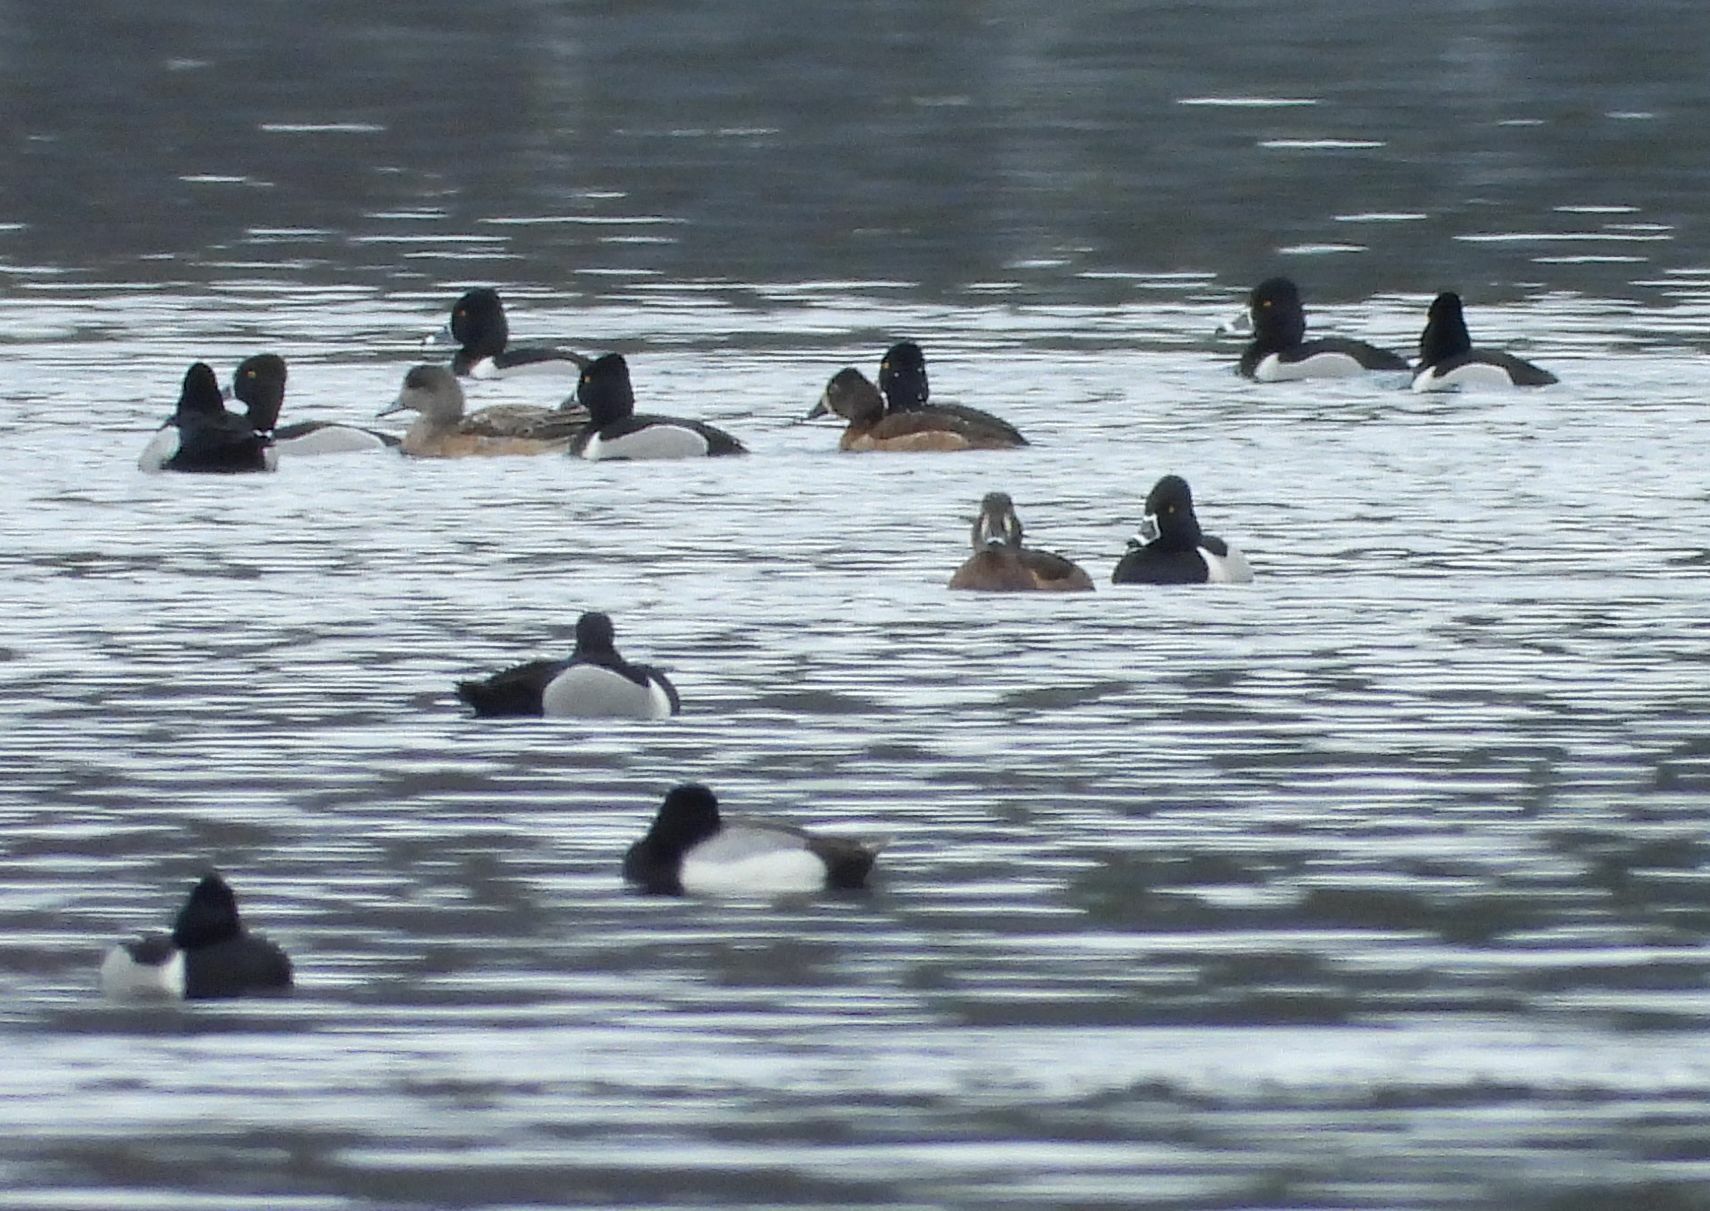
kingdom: Animalia
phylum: Chordata
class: Aves
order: Anseriformes
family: Anatidae
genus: Aythya
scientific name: Aythya collaris
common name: Ring-necked duck
